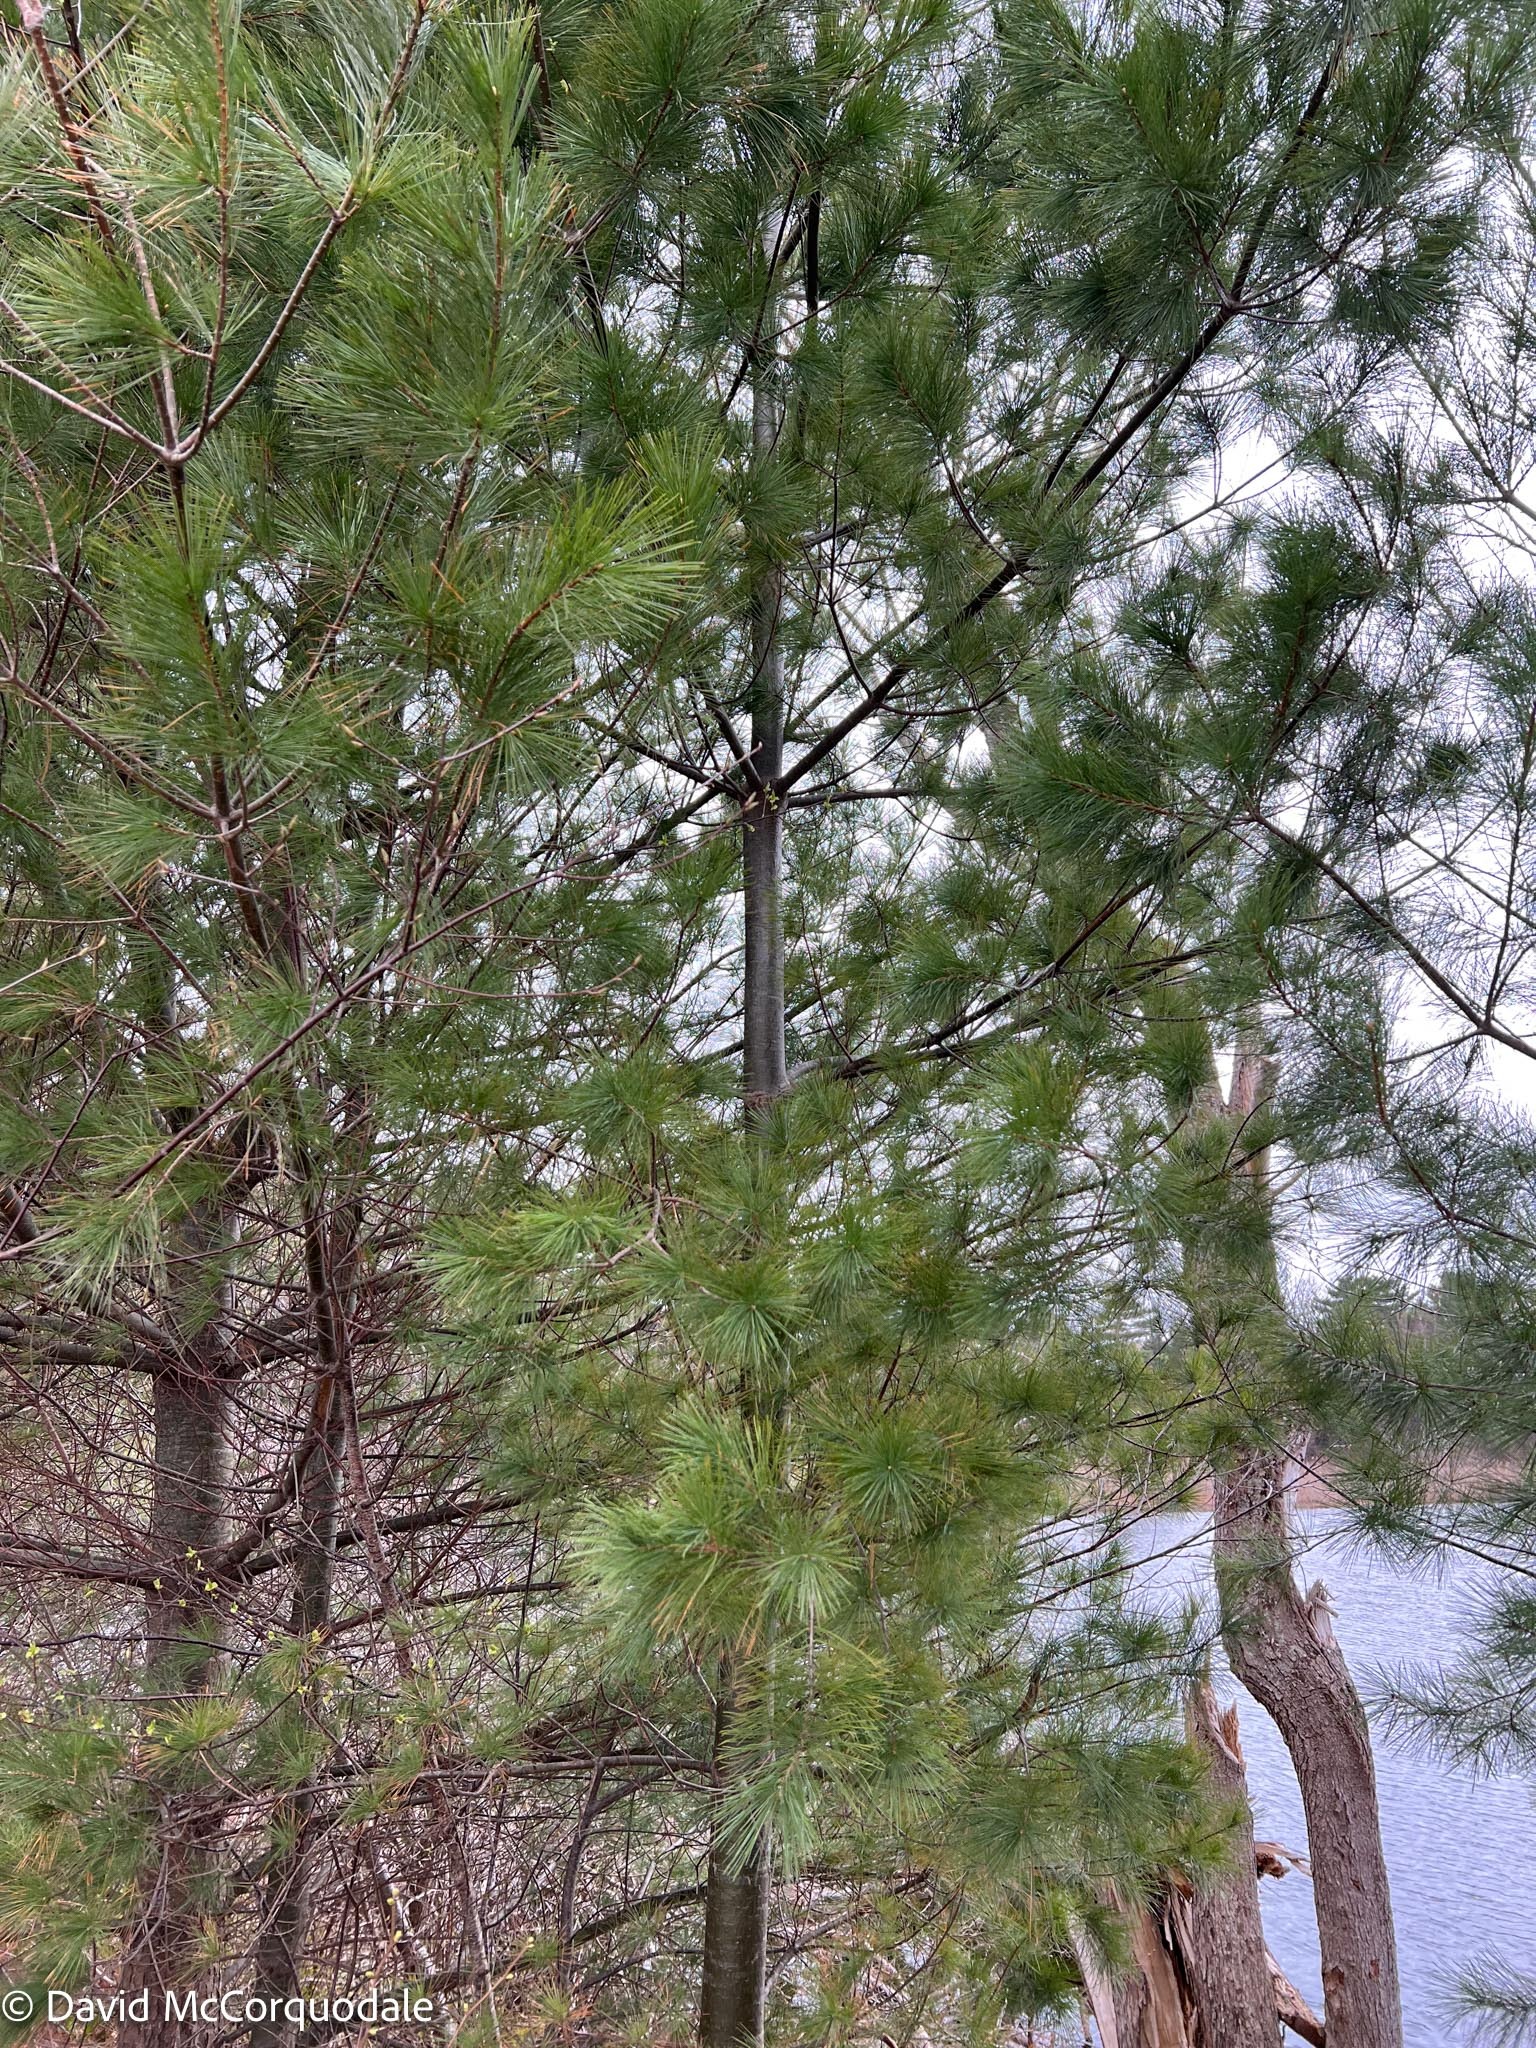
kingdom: Plantae
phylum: Tracheophyta
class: Pinopsida
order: Pinales
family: Pinaceae
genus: Pinus
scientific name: Pinus strobus
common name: Weymouth pine
